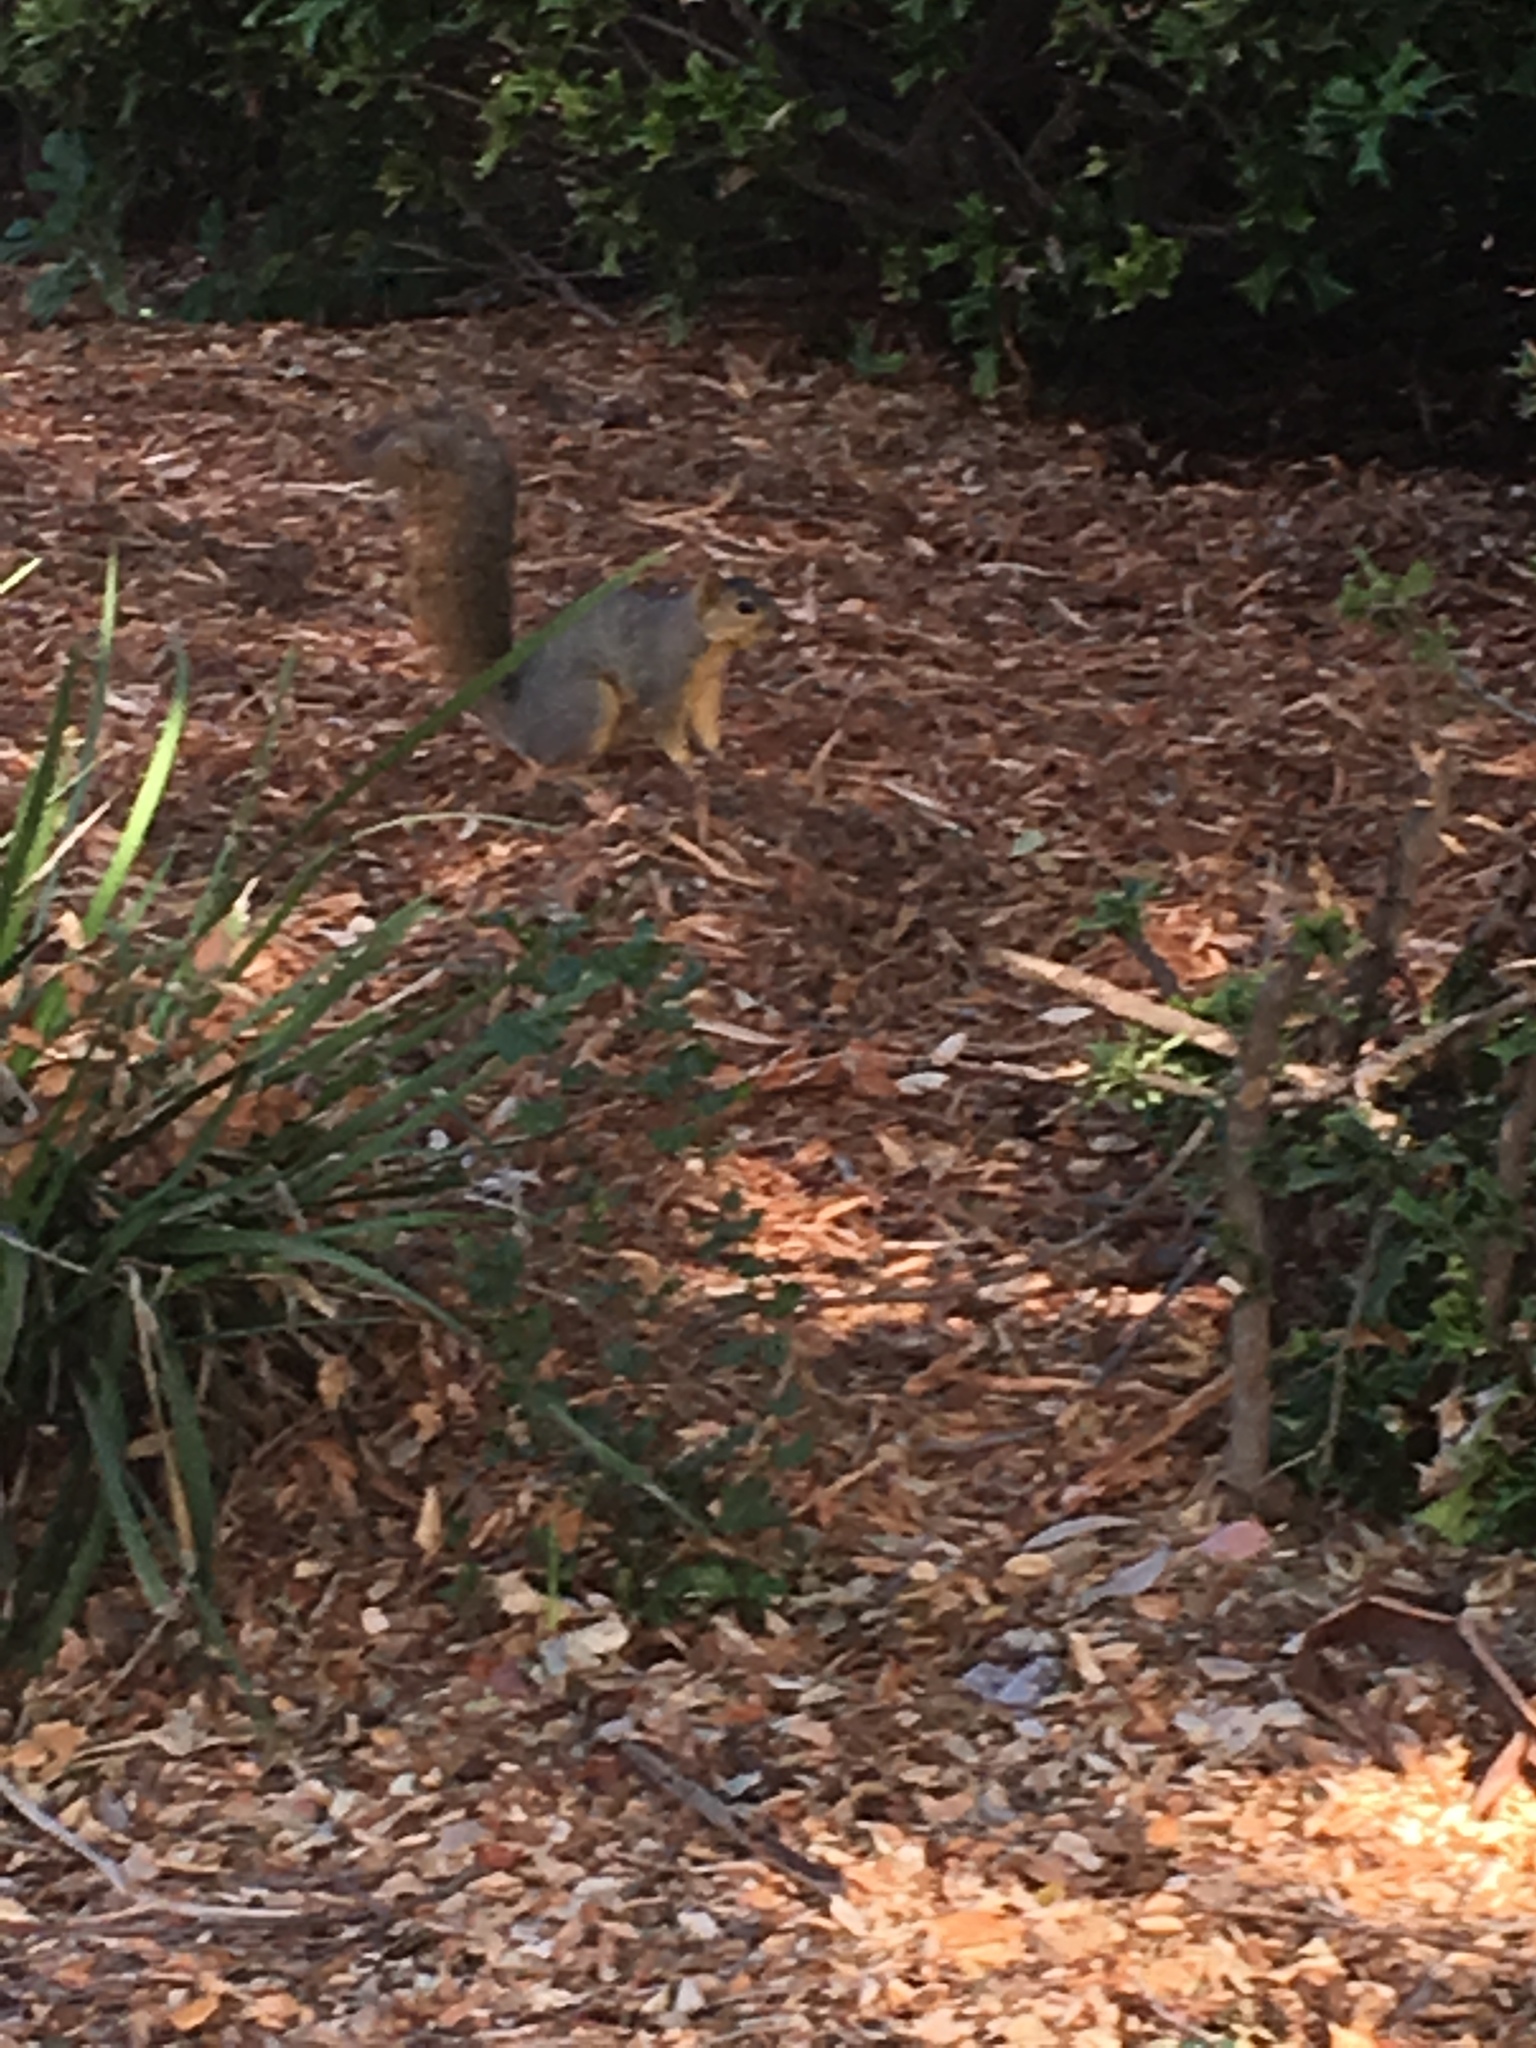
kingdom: Animalia
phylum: Chordata
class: Mammalia
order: Rodentia
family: Sciuridae
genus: Sciurus
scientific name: Sciurus niger
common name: Fox squirrel
